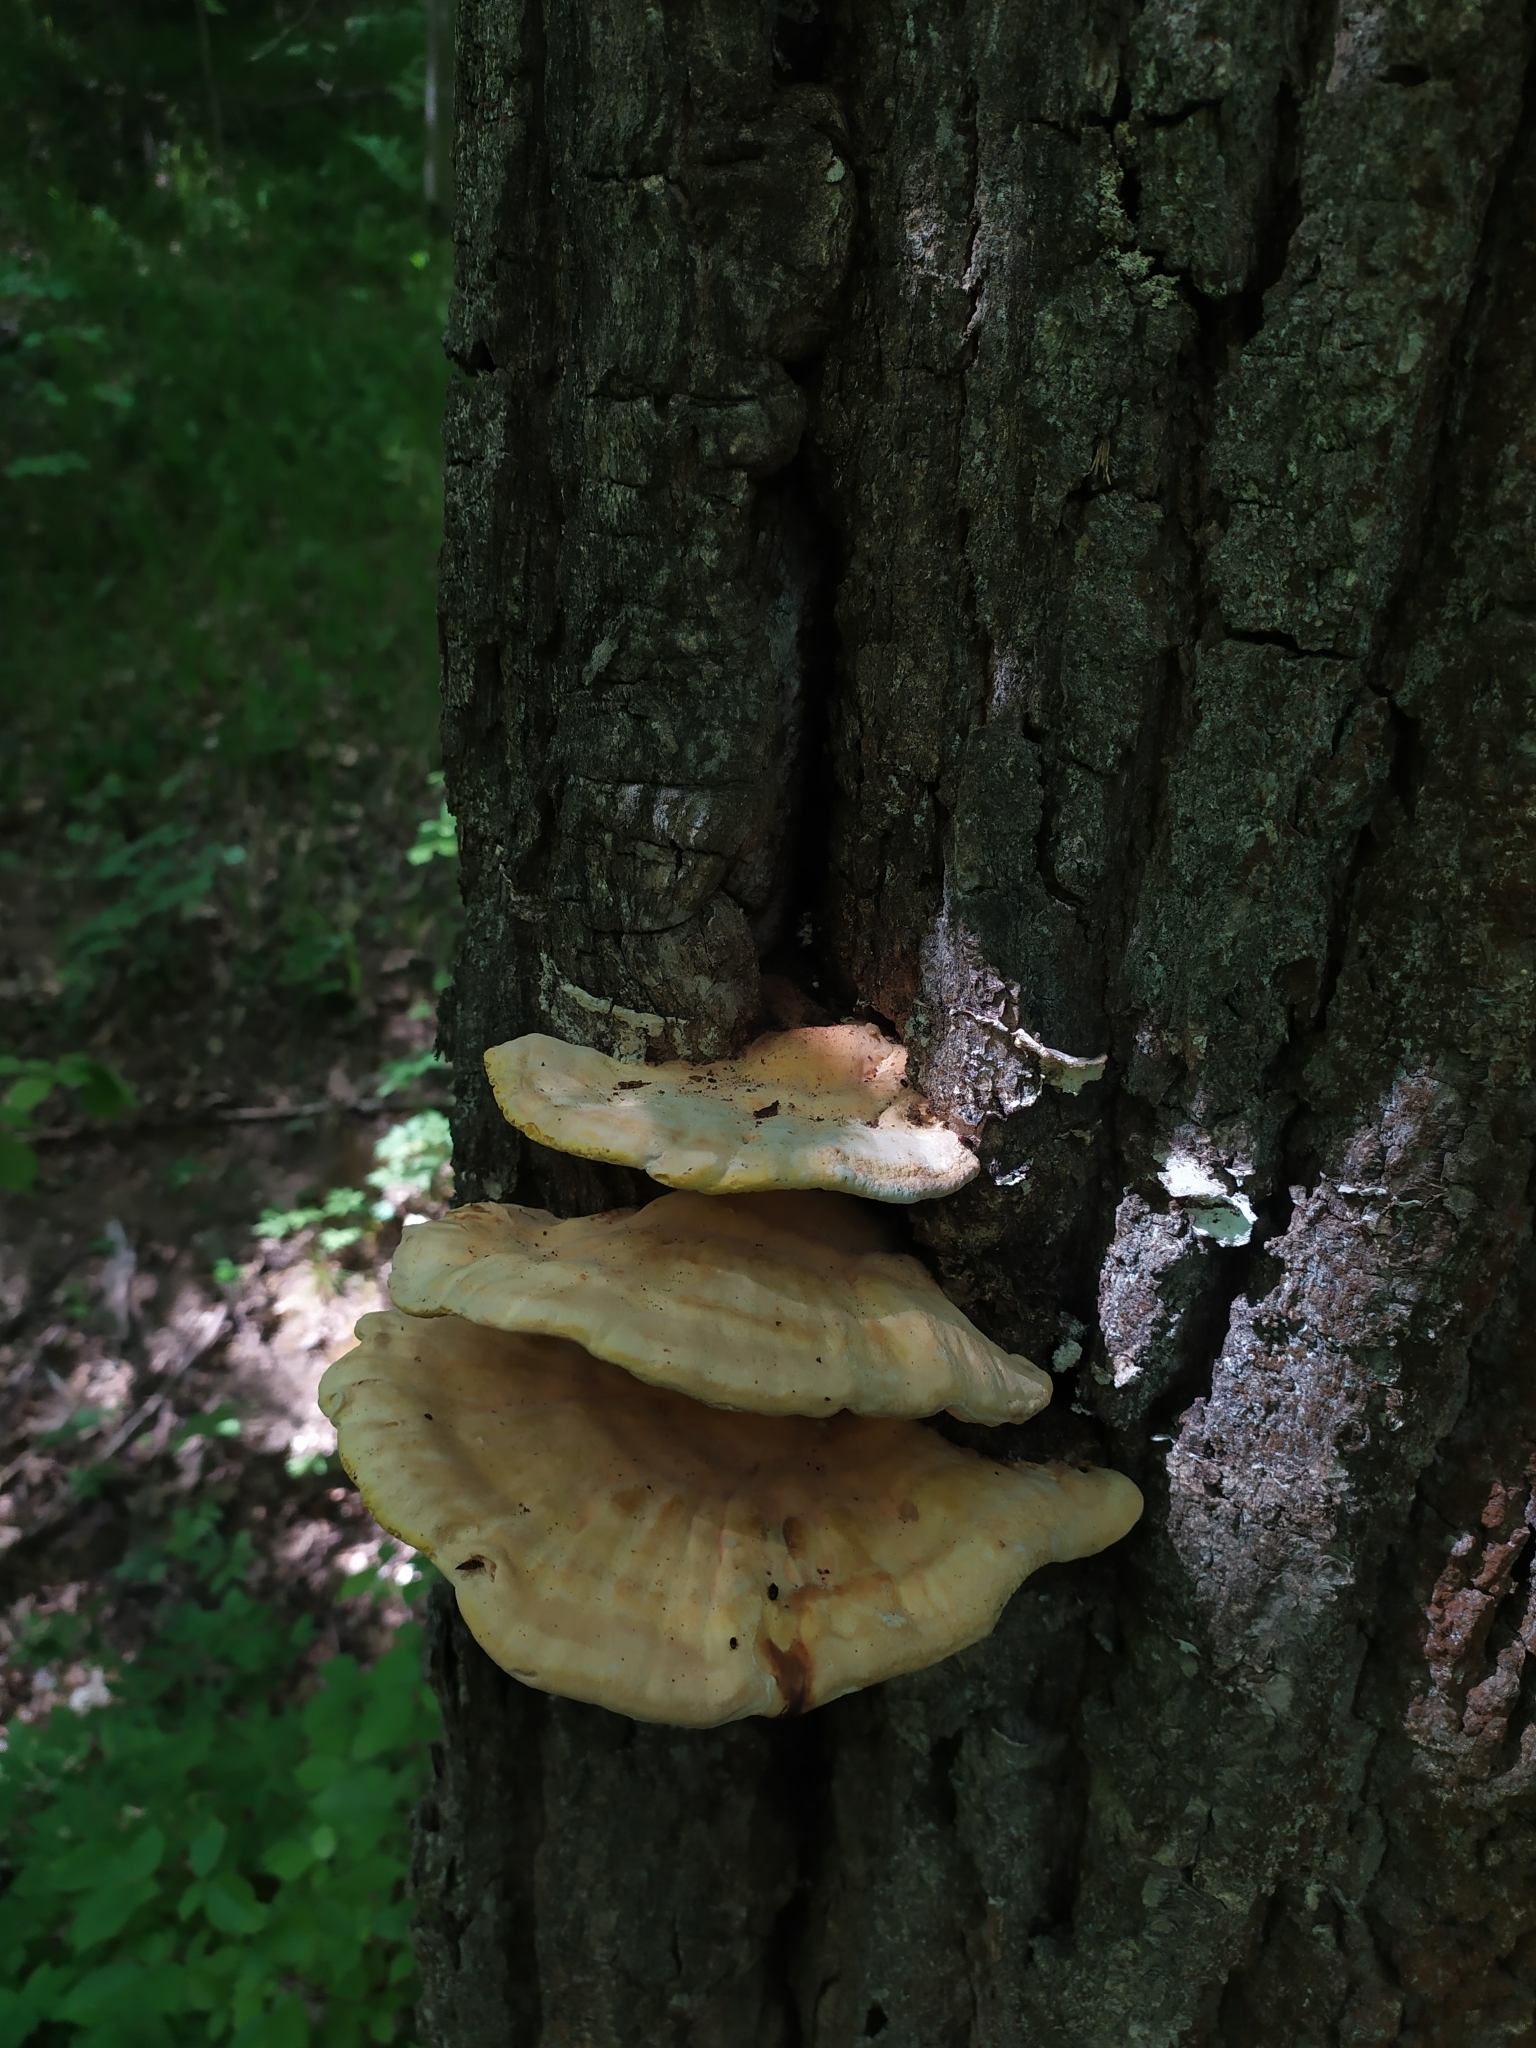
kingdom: Fungi
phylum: Basidiomycota
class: Agaricomycetes
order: Polyporales
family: Laetiporaceae
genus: Laetiporus
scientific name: Laetiporus sulphureus
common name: Chicken of the woods
